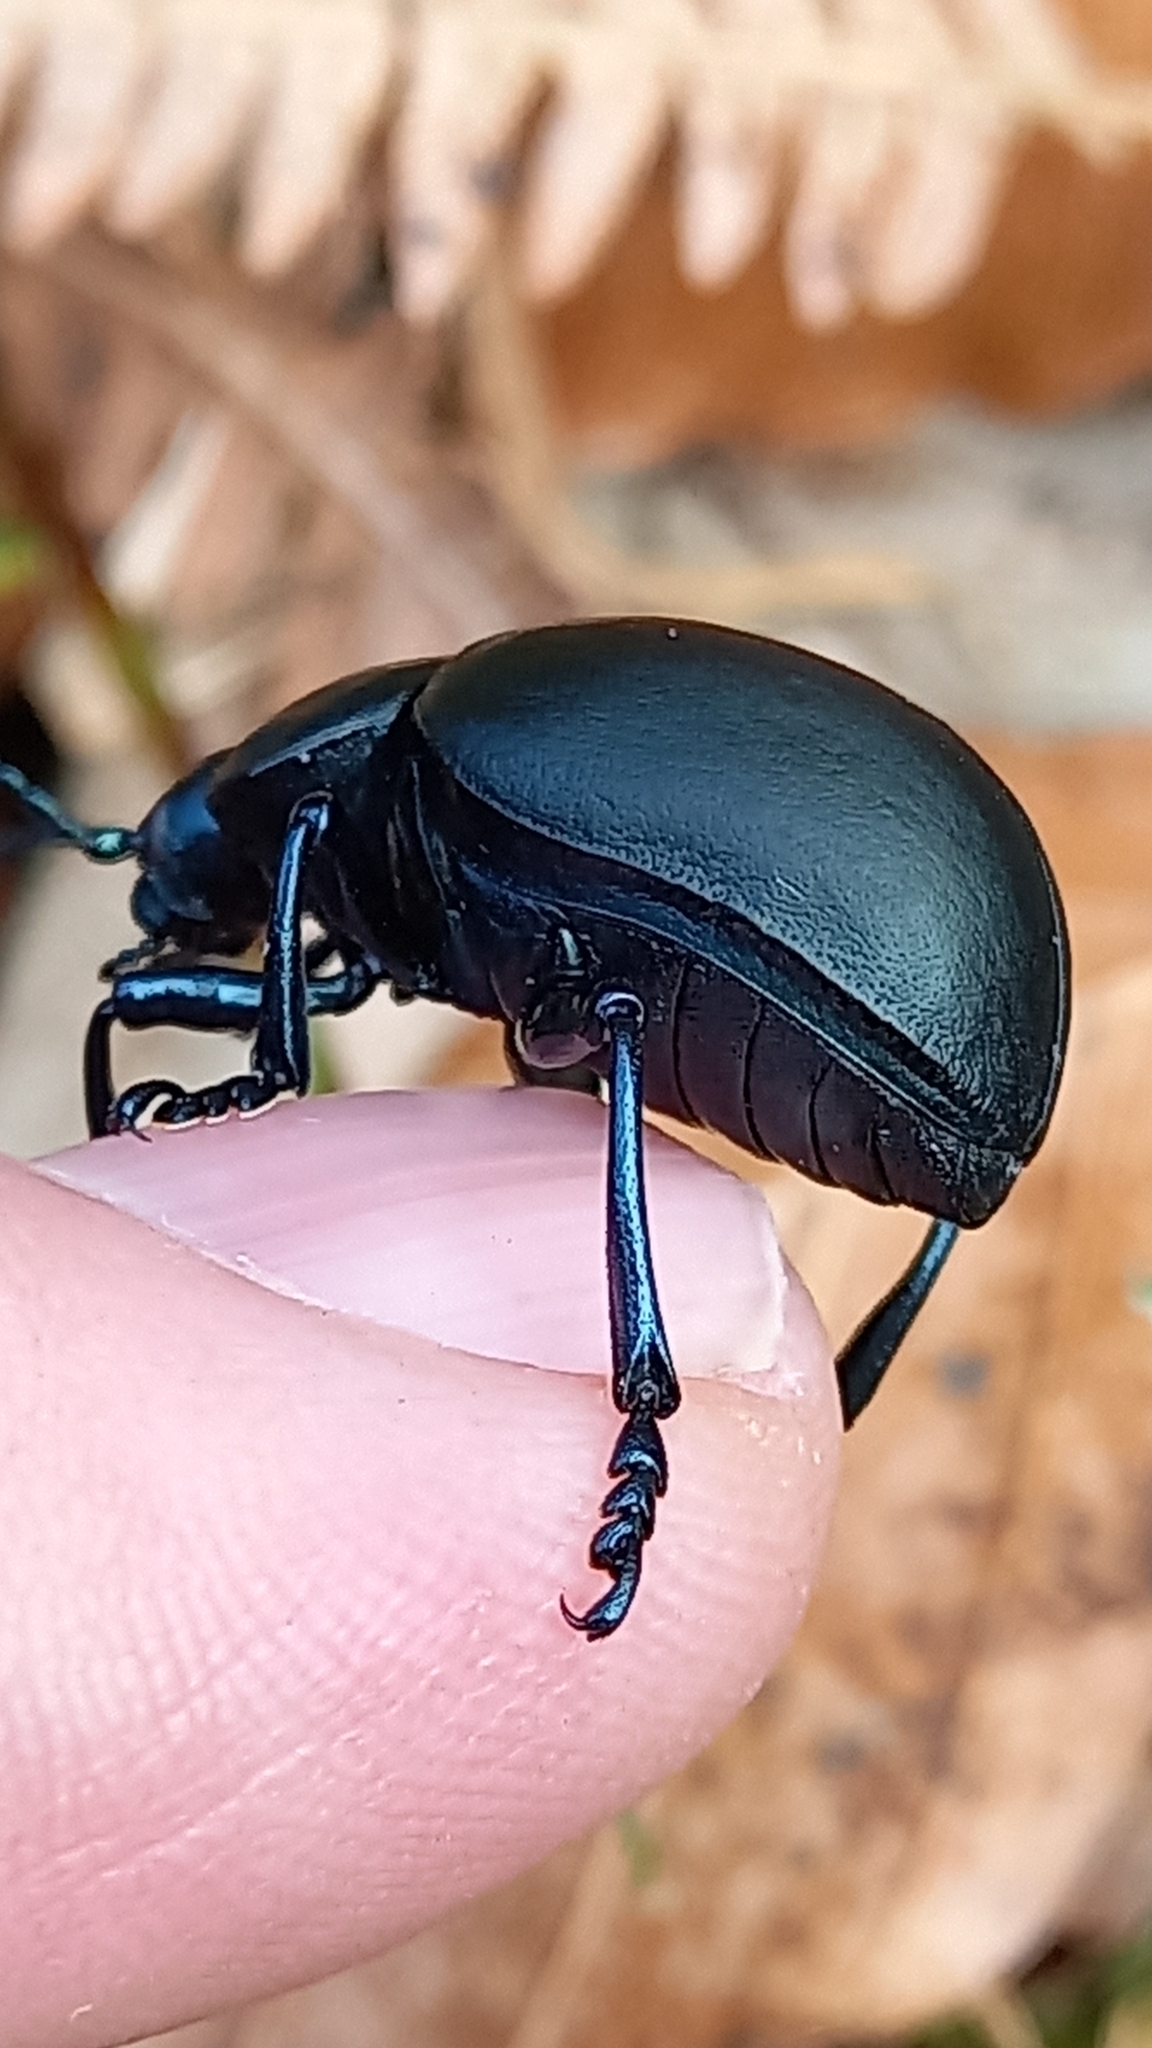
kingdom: Animalia
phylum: Arthropoda
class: Insecta
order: Coleoptera
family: Chrysomelidae
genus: Timarcha
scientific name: Timarcha tenebricosa
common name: Bloody-nosed beetle
